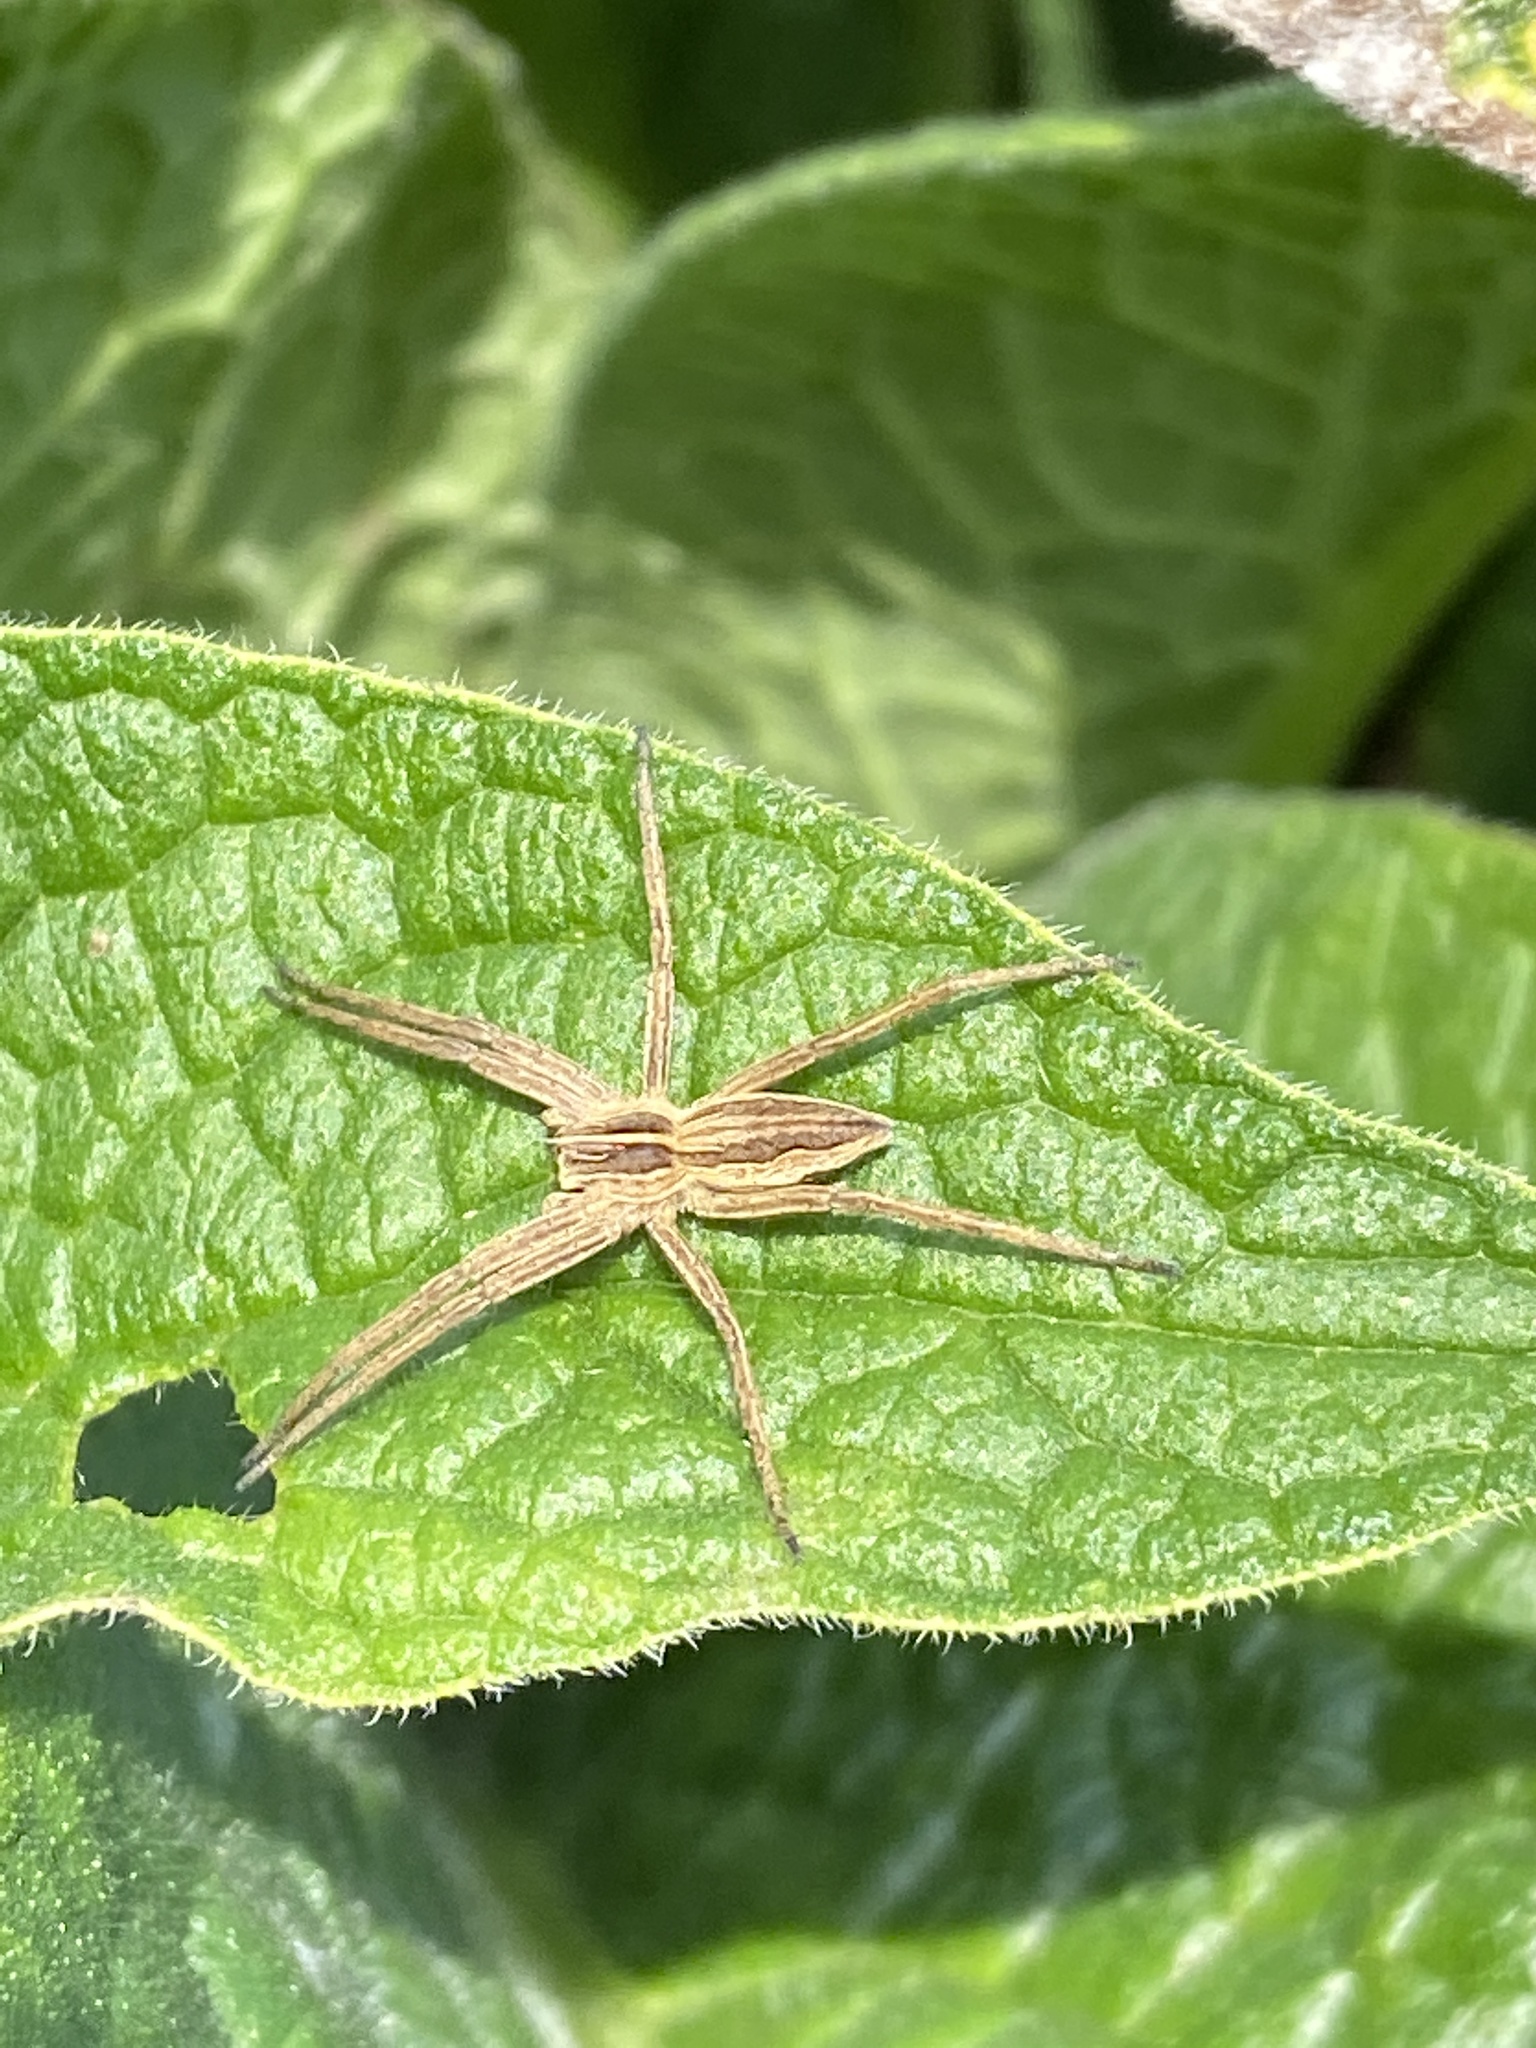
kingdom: Animalia
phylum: Arthropoda
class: Arachnida
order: Araneae
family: Pisauridae
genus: Pisaura
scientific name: Pisaura mirabilis
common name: Tent spider
